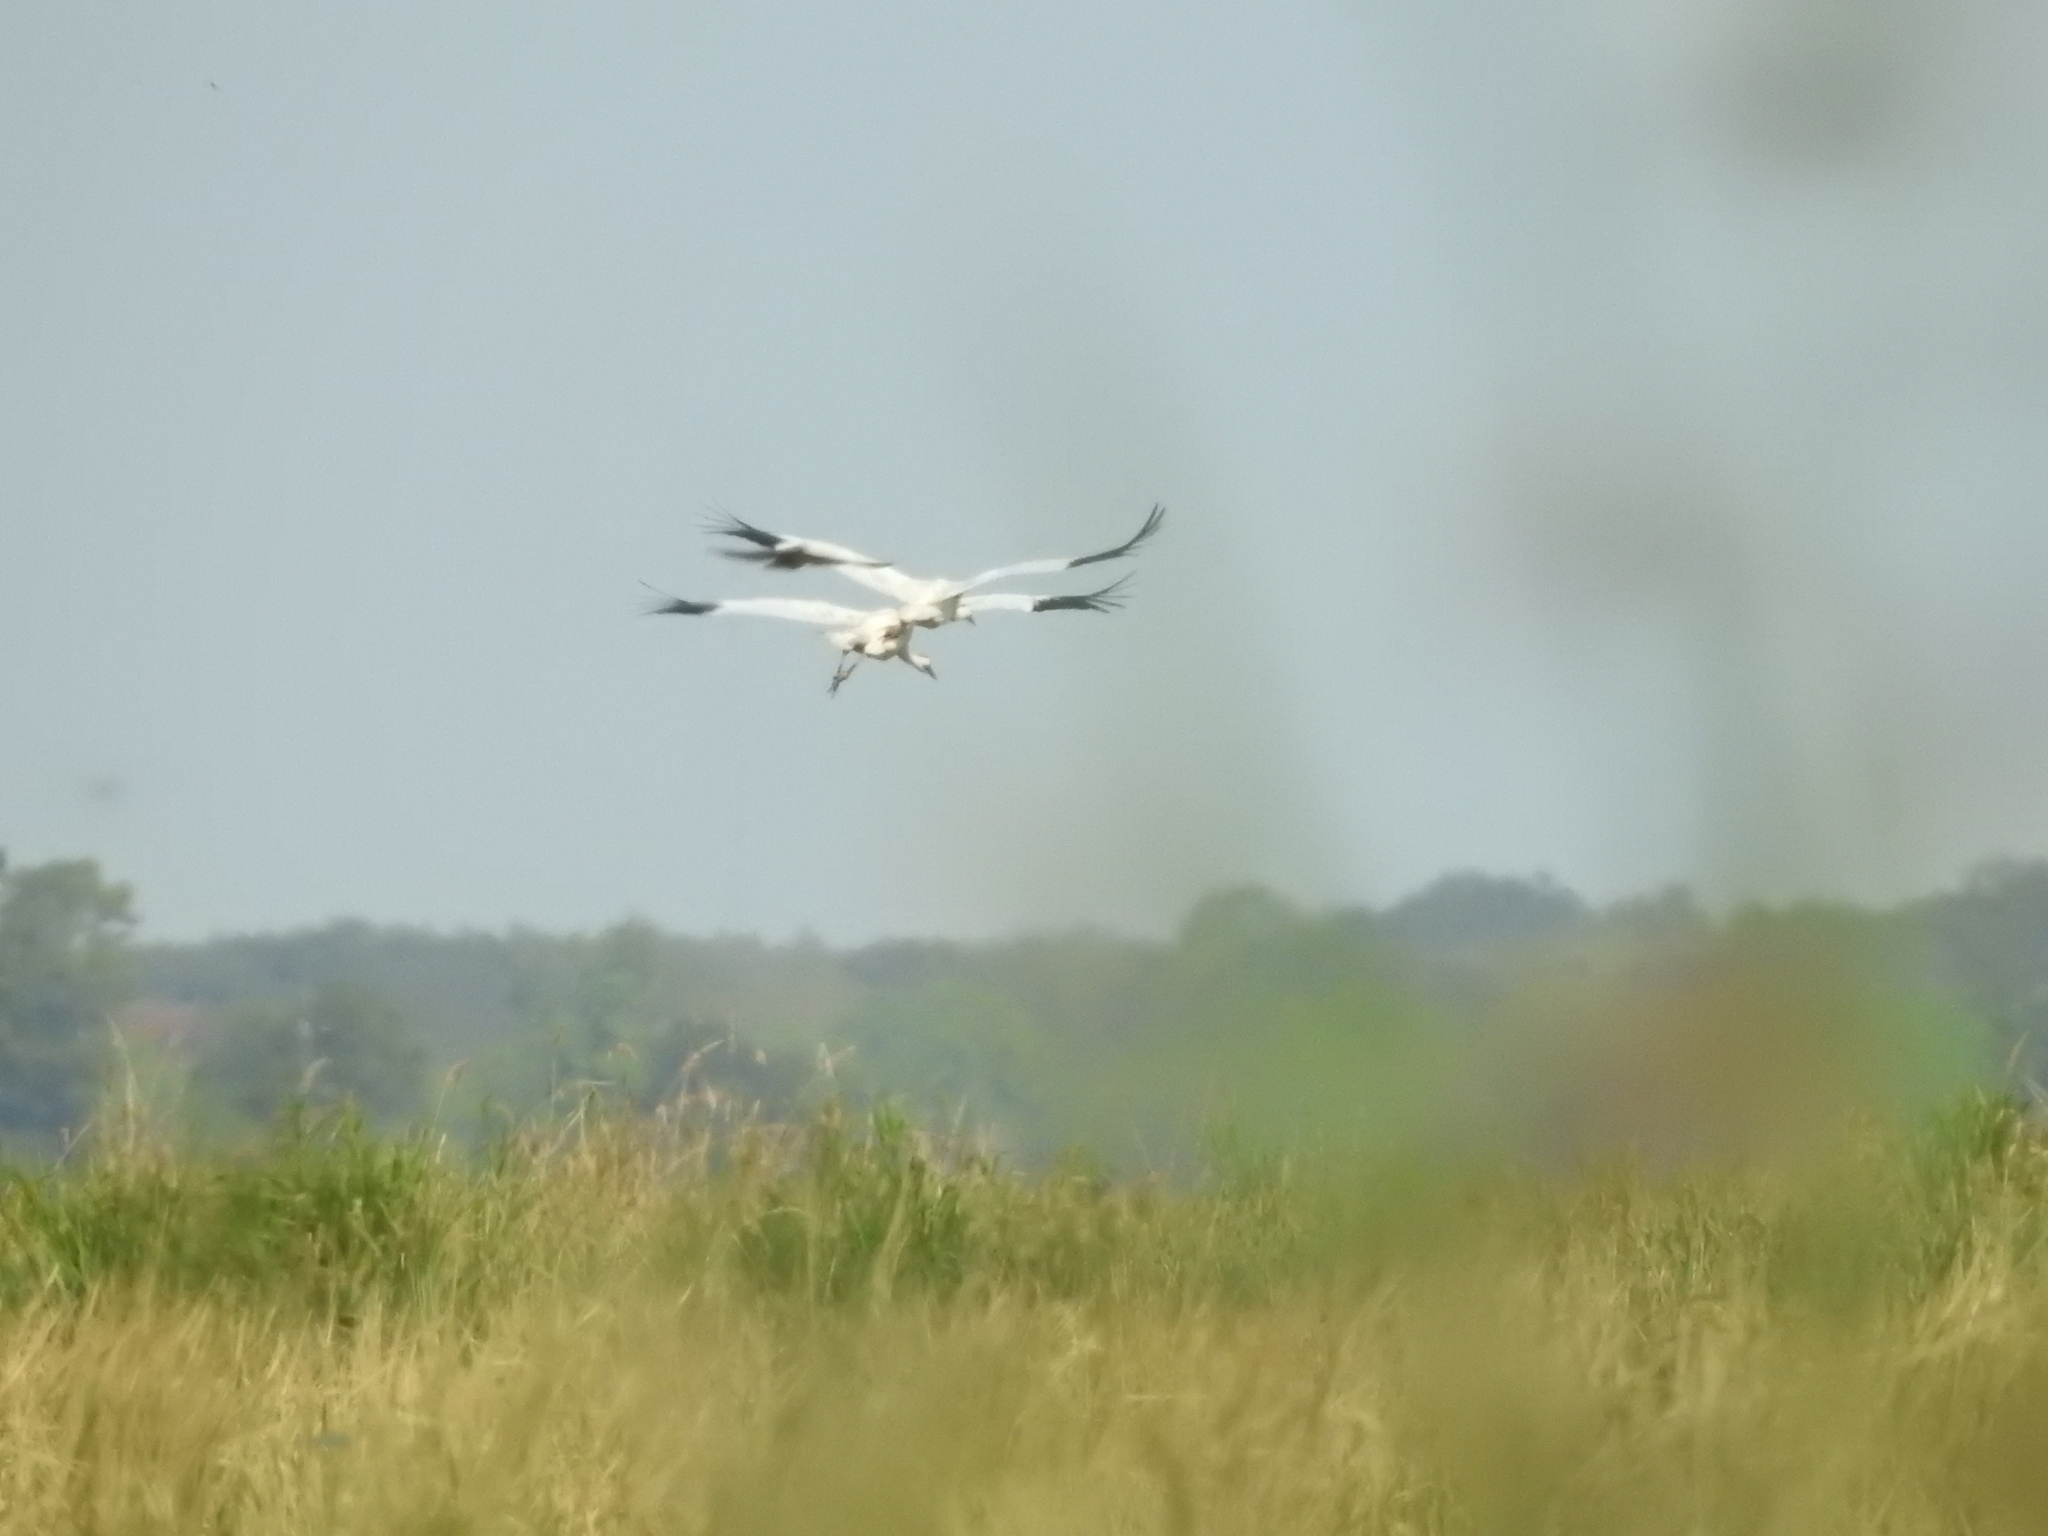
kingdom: Animalia
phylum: Chordata
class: Aves
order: Gruiformes
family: Gruidae
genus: Grus
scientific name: Grus americana
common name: Whooping crane
